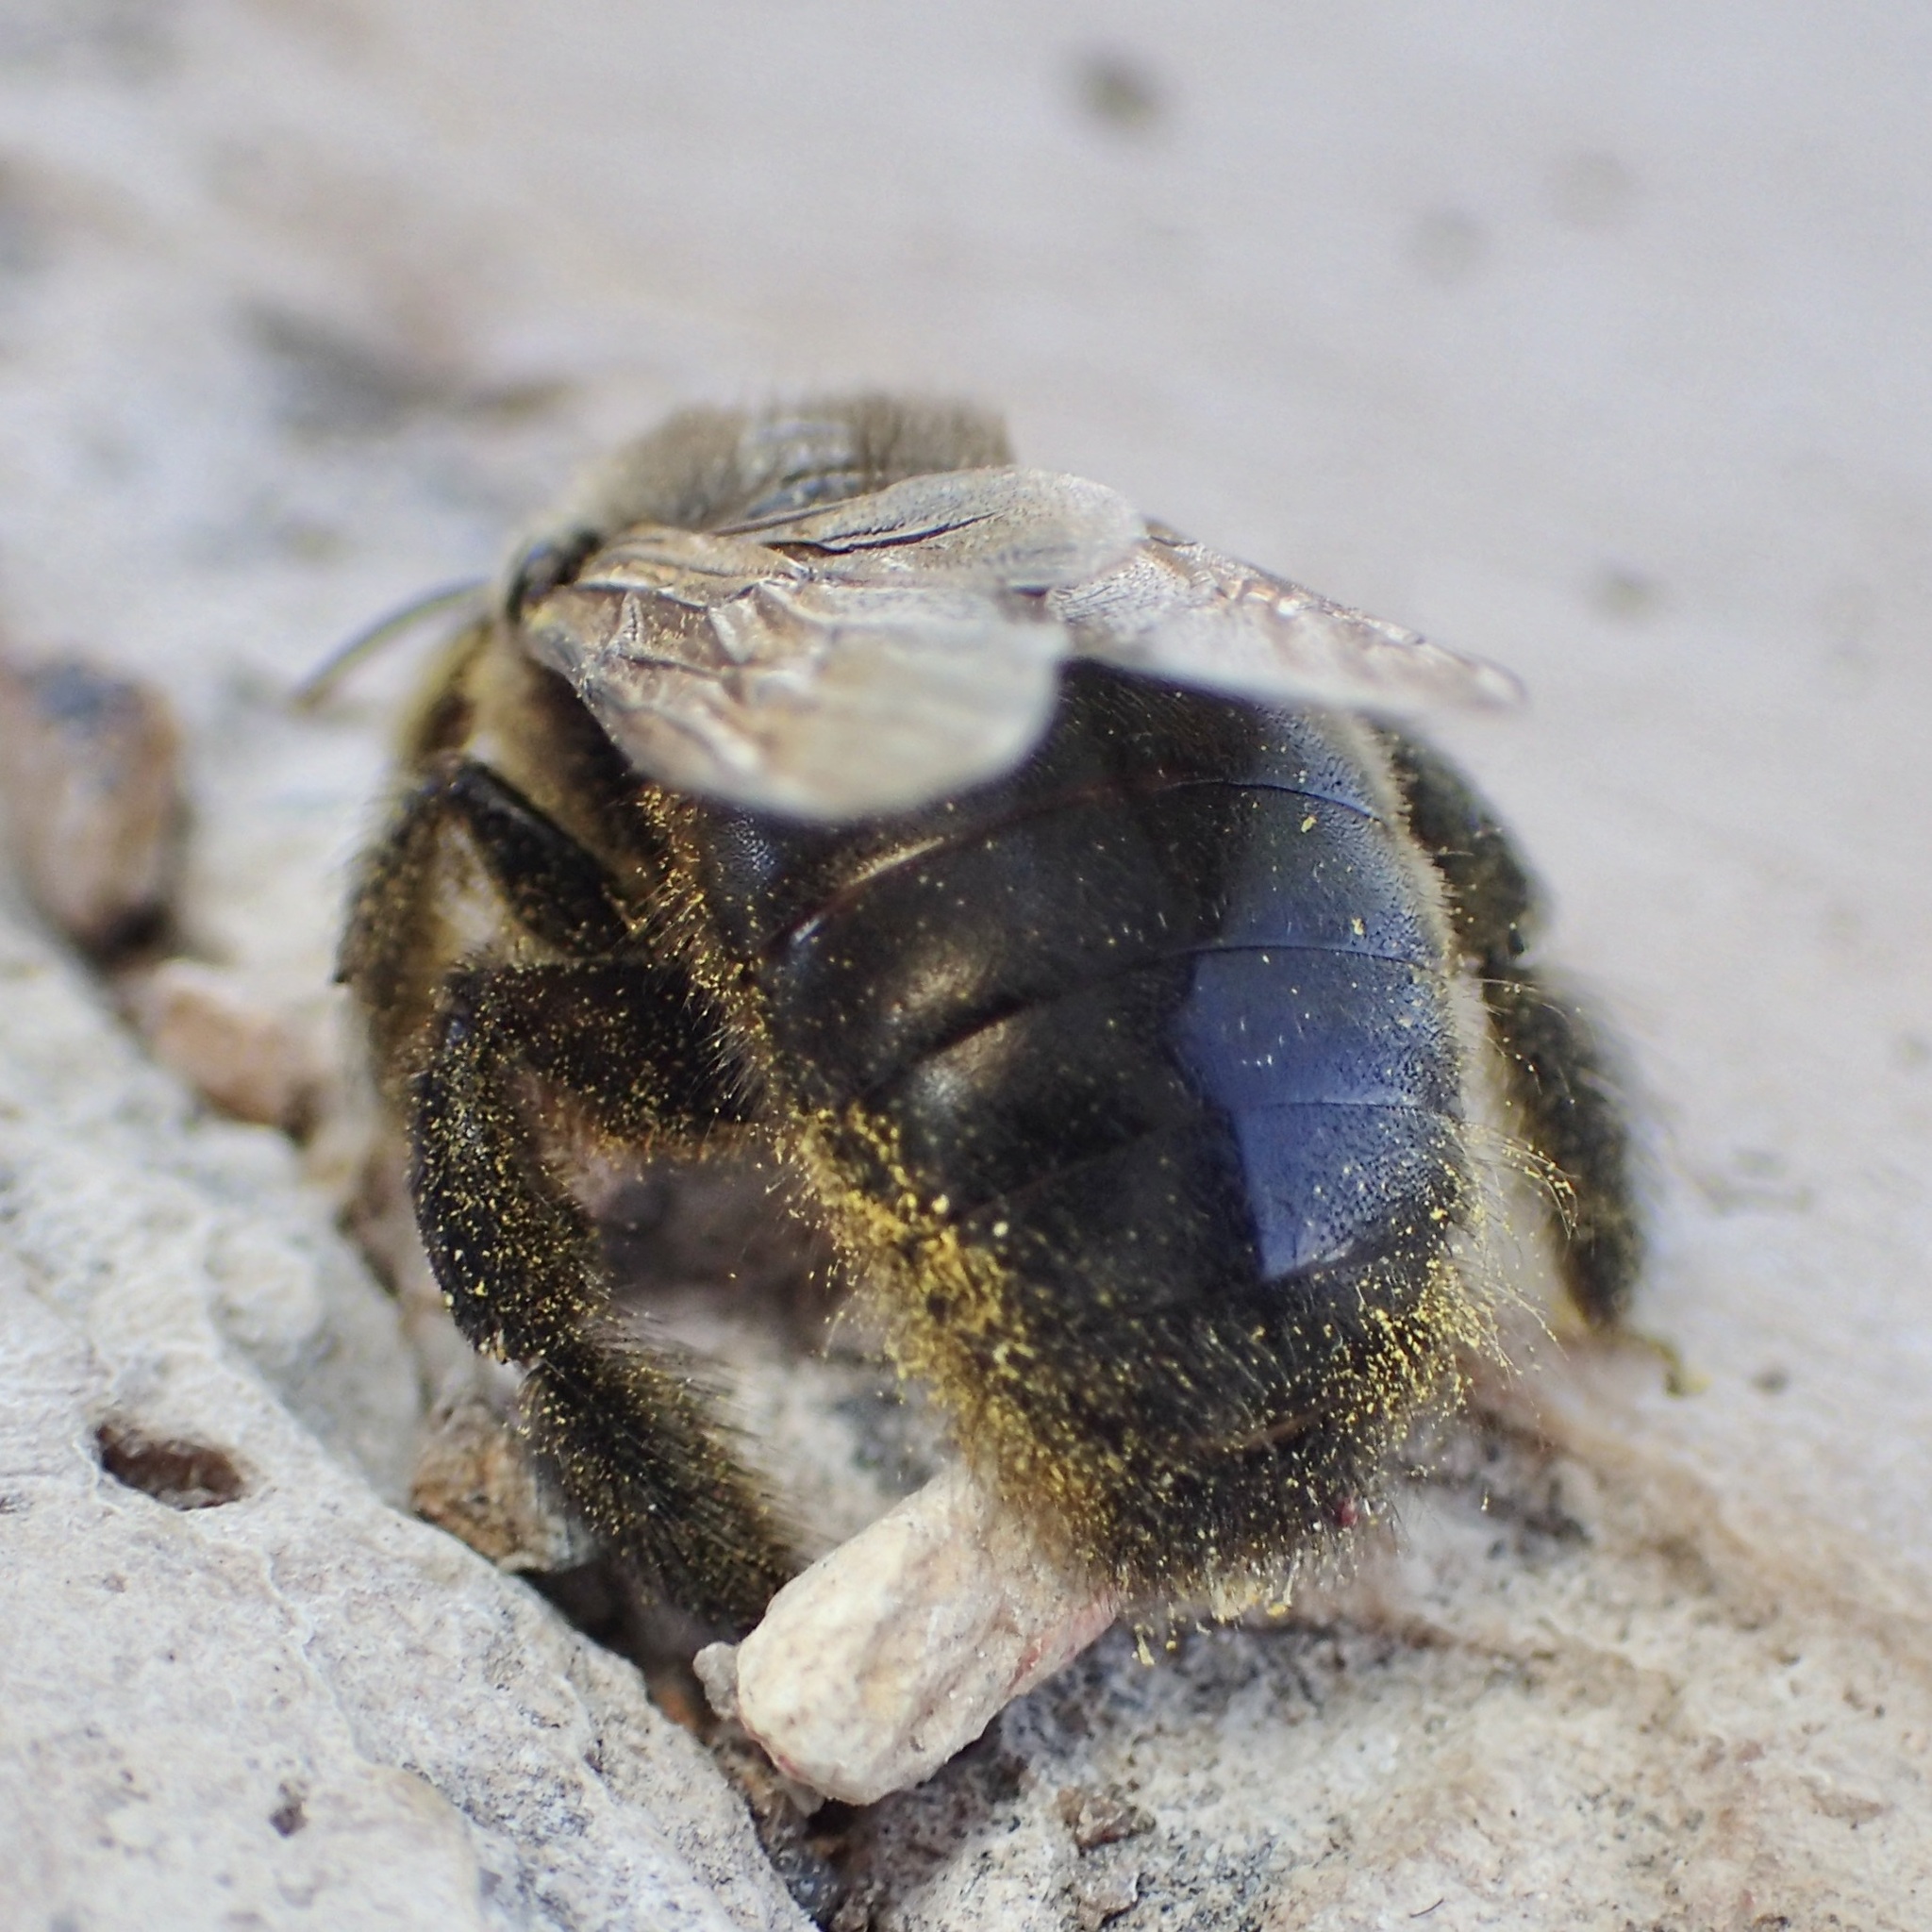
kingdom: Animalia
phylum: Arthropoda
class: Insecta
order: Hymenoptera
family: Apidae
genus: Xylocopa
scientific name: Xylocopa micheneri
